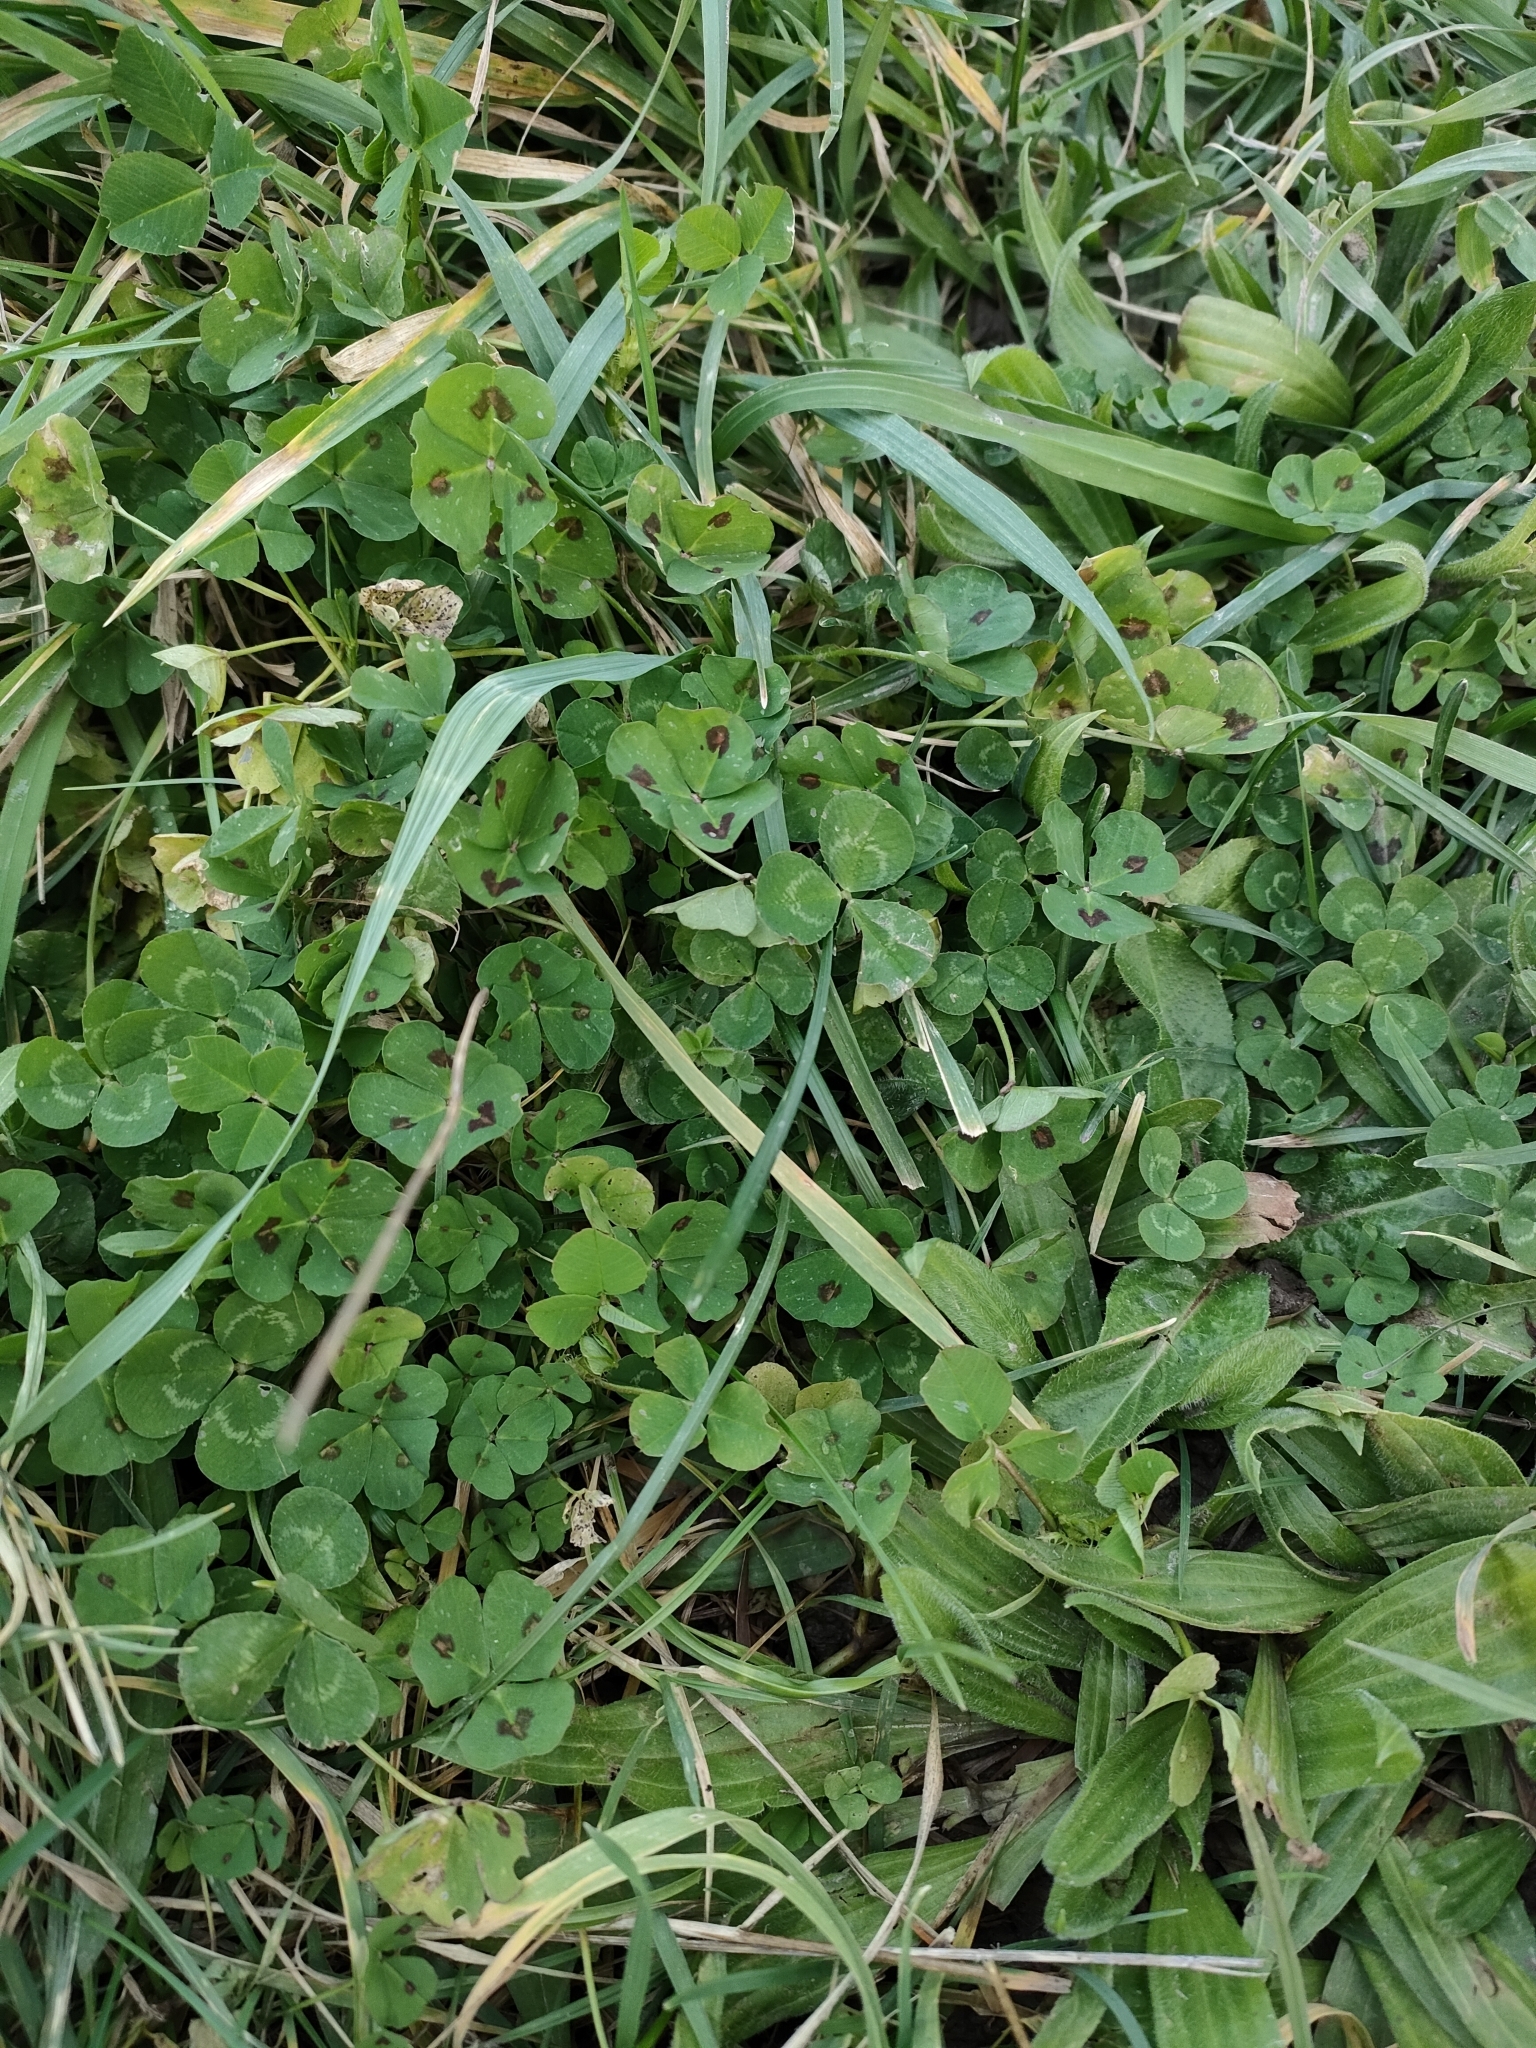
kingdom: Plantae
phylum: Tracheophyta
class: Magnoliopsida
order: Fabales
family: Fabaceae
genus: Medicago
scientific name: Medicago arabica
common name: Spotted medick
